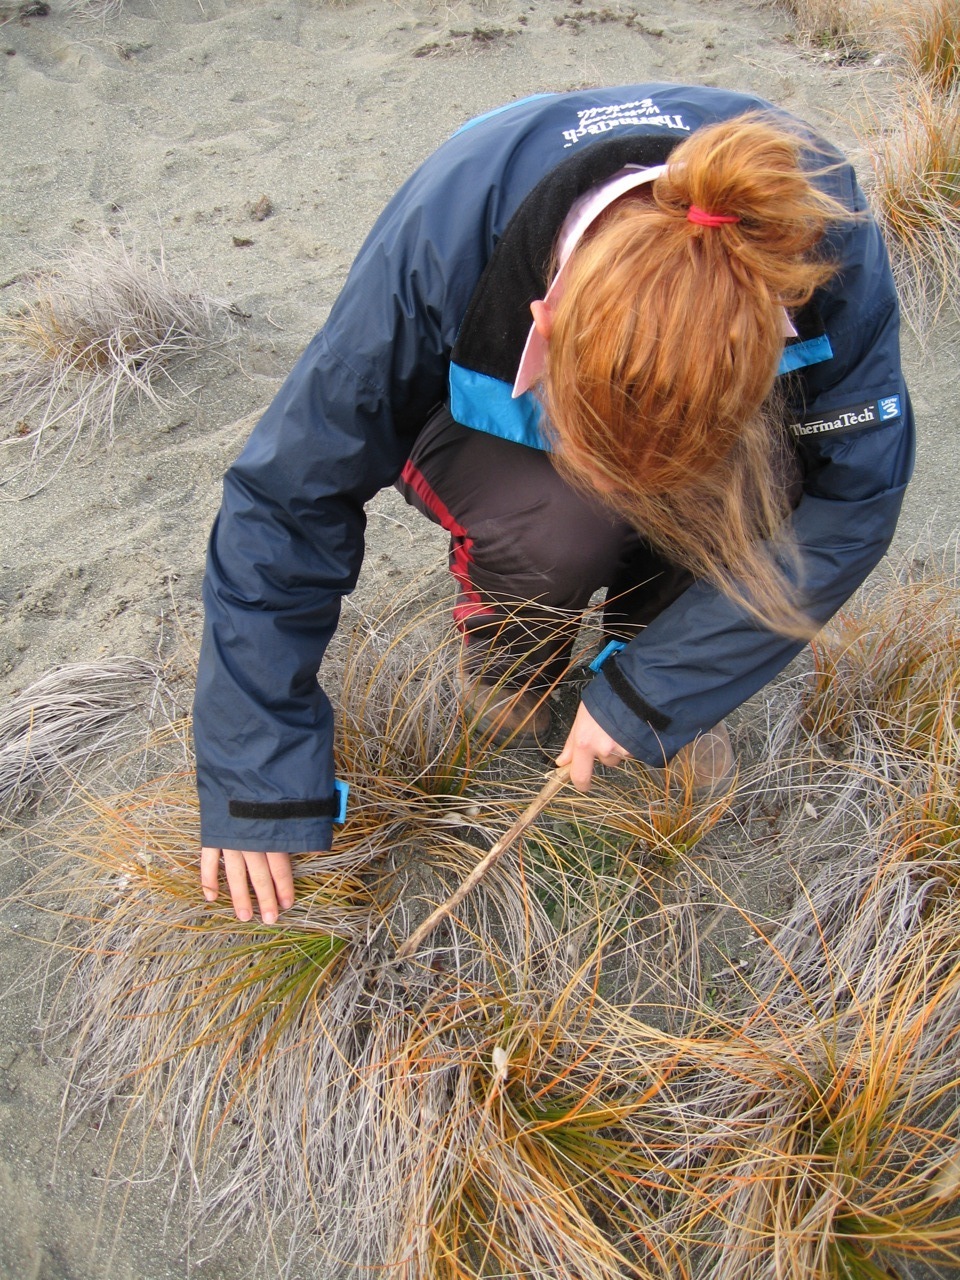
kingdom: Animalia
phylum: Arthropoda
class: Arachnida
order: Araneae
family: Theridiidae
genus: Latrodectus
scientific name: Latrodectus katipo
